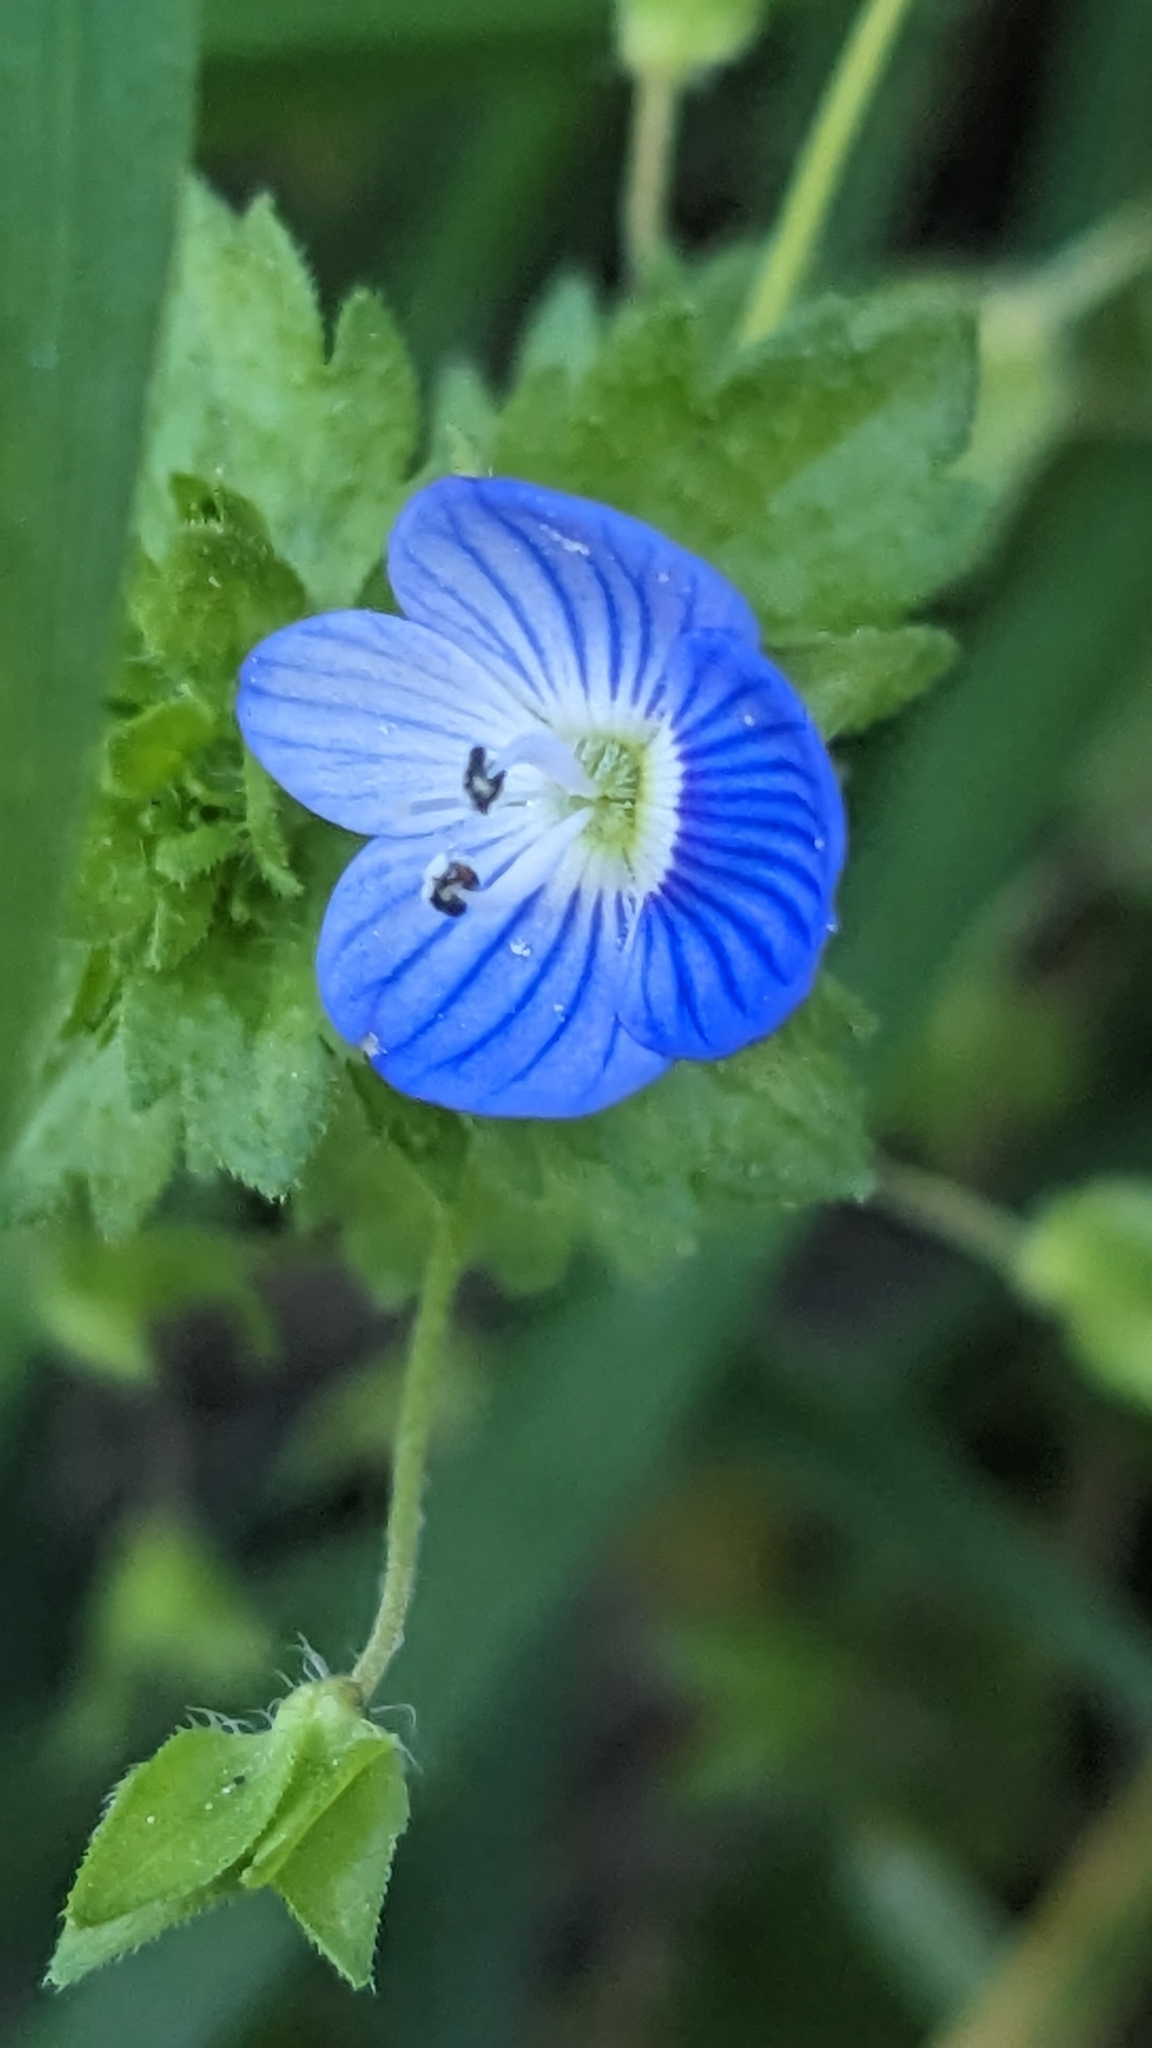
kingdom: Plantae
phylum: Tracheophyta
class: Magnoliopsida
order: Lamiales
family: Plantaginaceae
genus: Veronica
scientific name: Veronica persica
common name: Common field-speedwell
